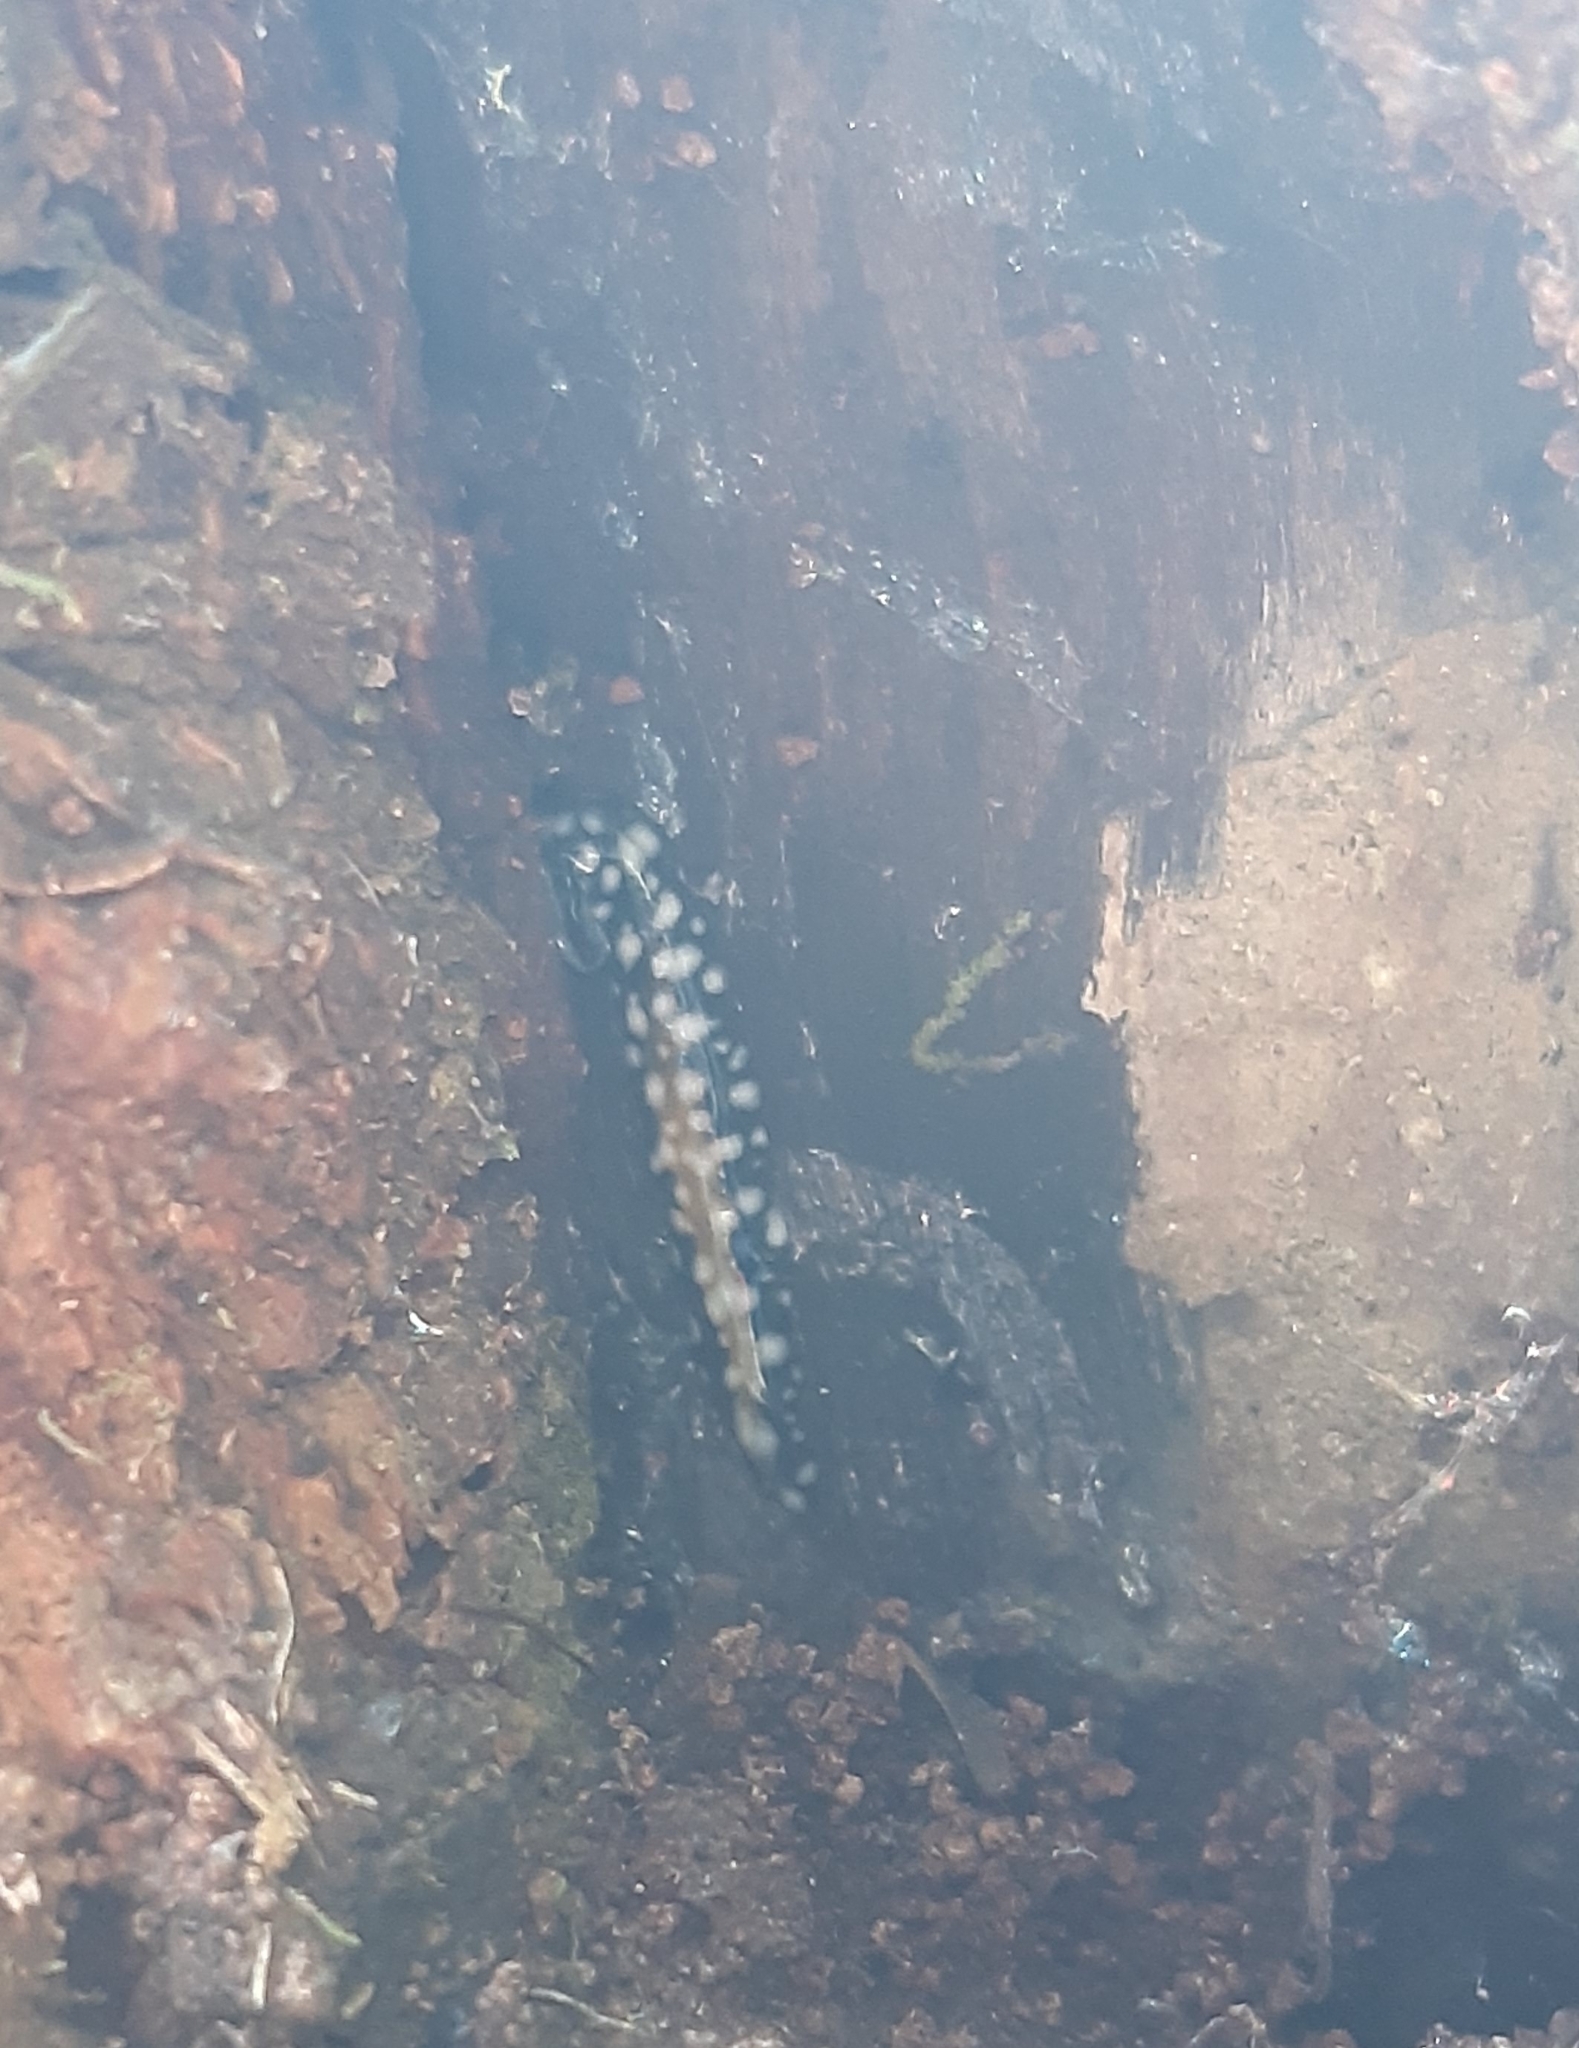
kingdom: Animalia
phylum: Platyhelminthes
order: Tricladida
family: Geoplanidae
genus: Geoplana
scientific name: Geoplana chita
